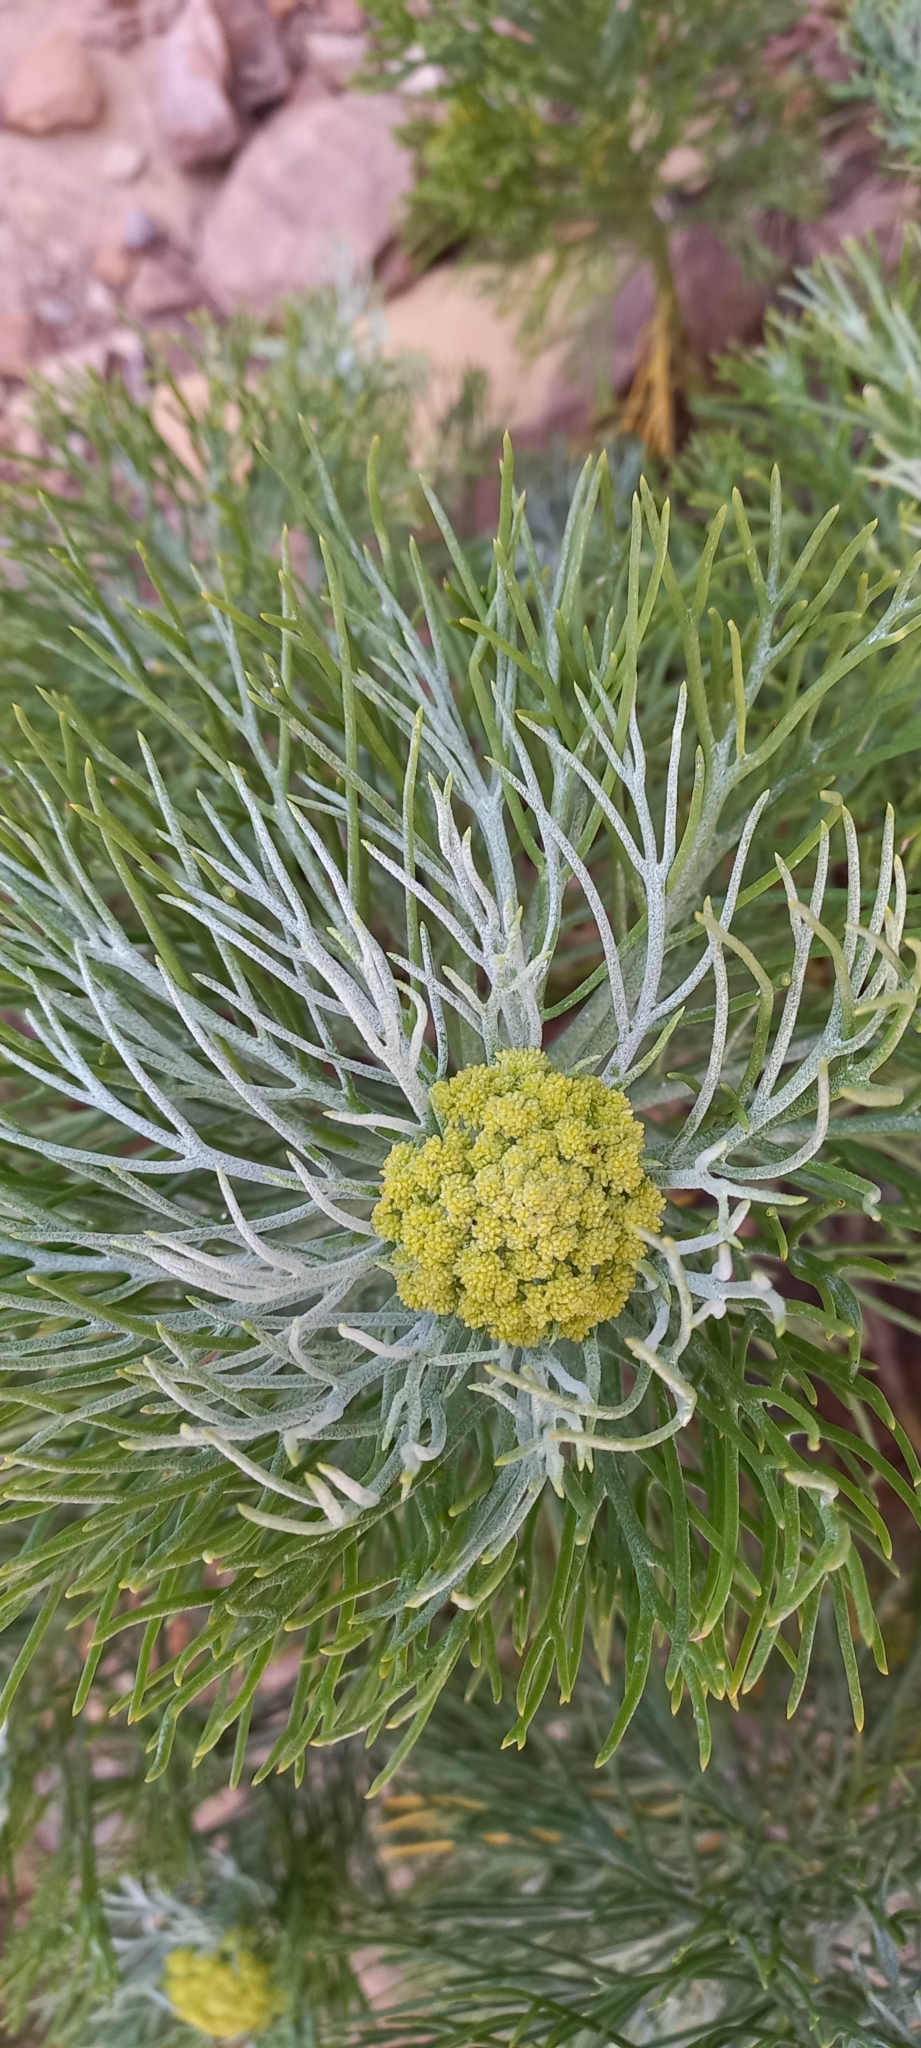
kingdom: Plantae
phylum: Tracheophyta
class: Magnoliopsida
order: Asterales
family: Asteraceae
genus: Hymenolepis
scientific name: Hymenolepis crithmifolia
